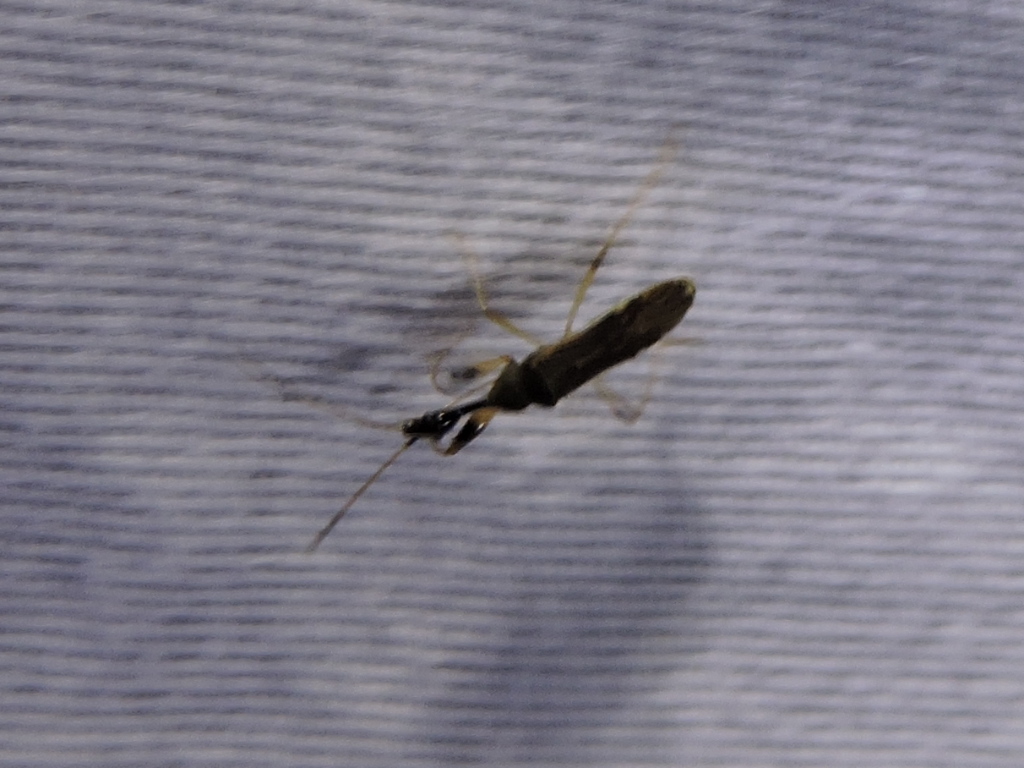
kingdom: Animalia
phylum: Arthropoda
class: Insecta
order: Hemiptera
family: Rhyparochromidae
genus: Myodocha
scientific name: Myodocha serripes
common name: Long-necked seed bug
